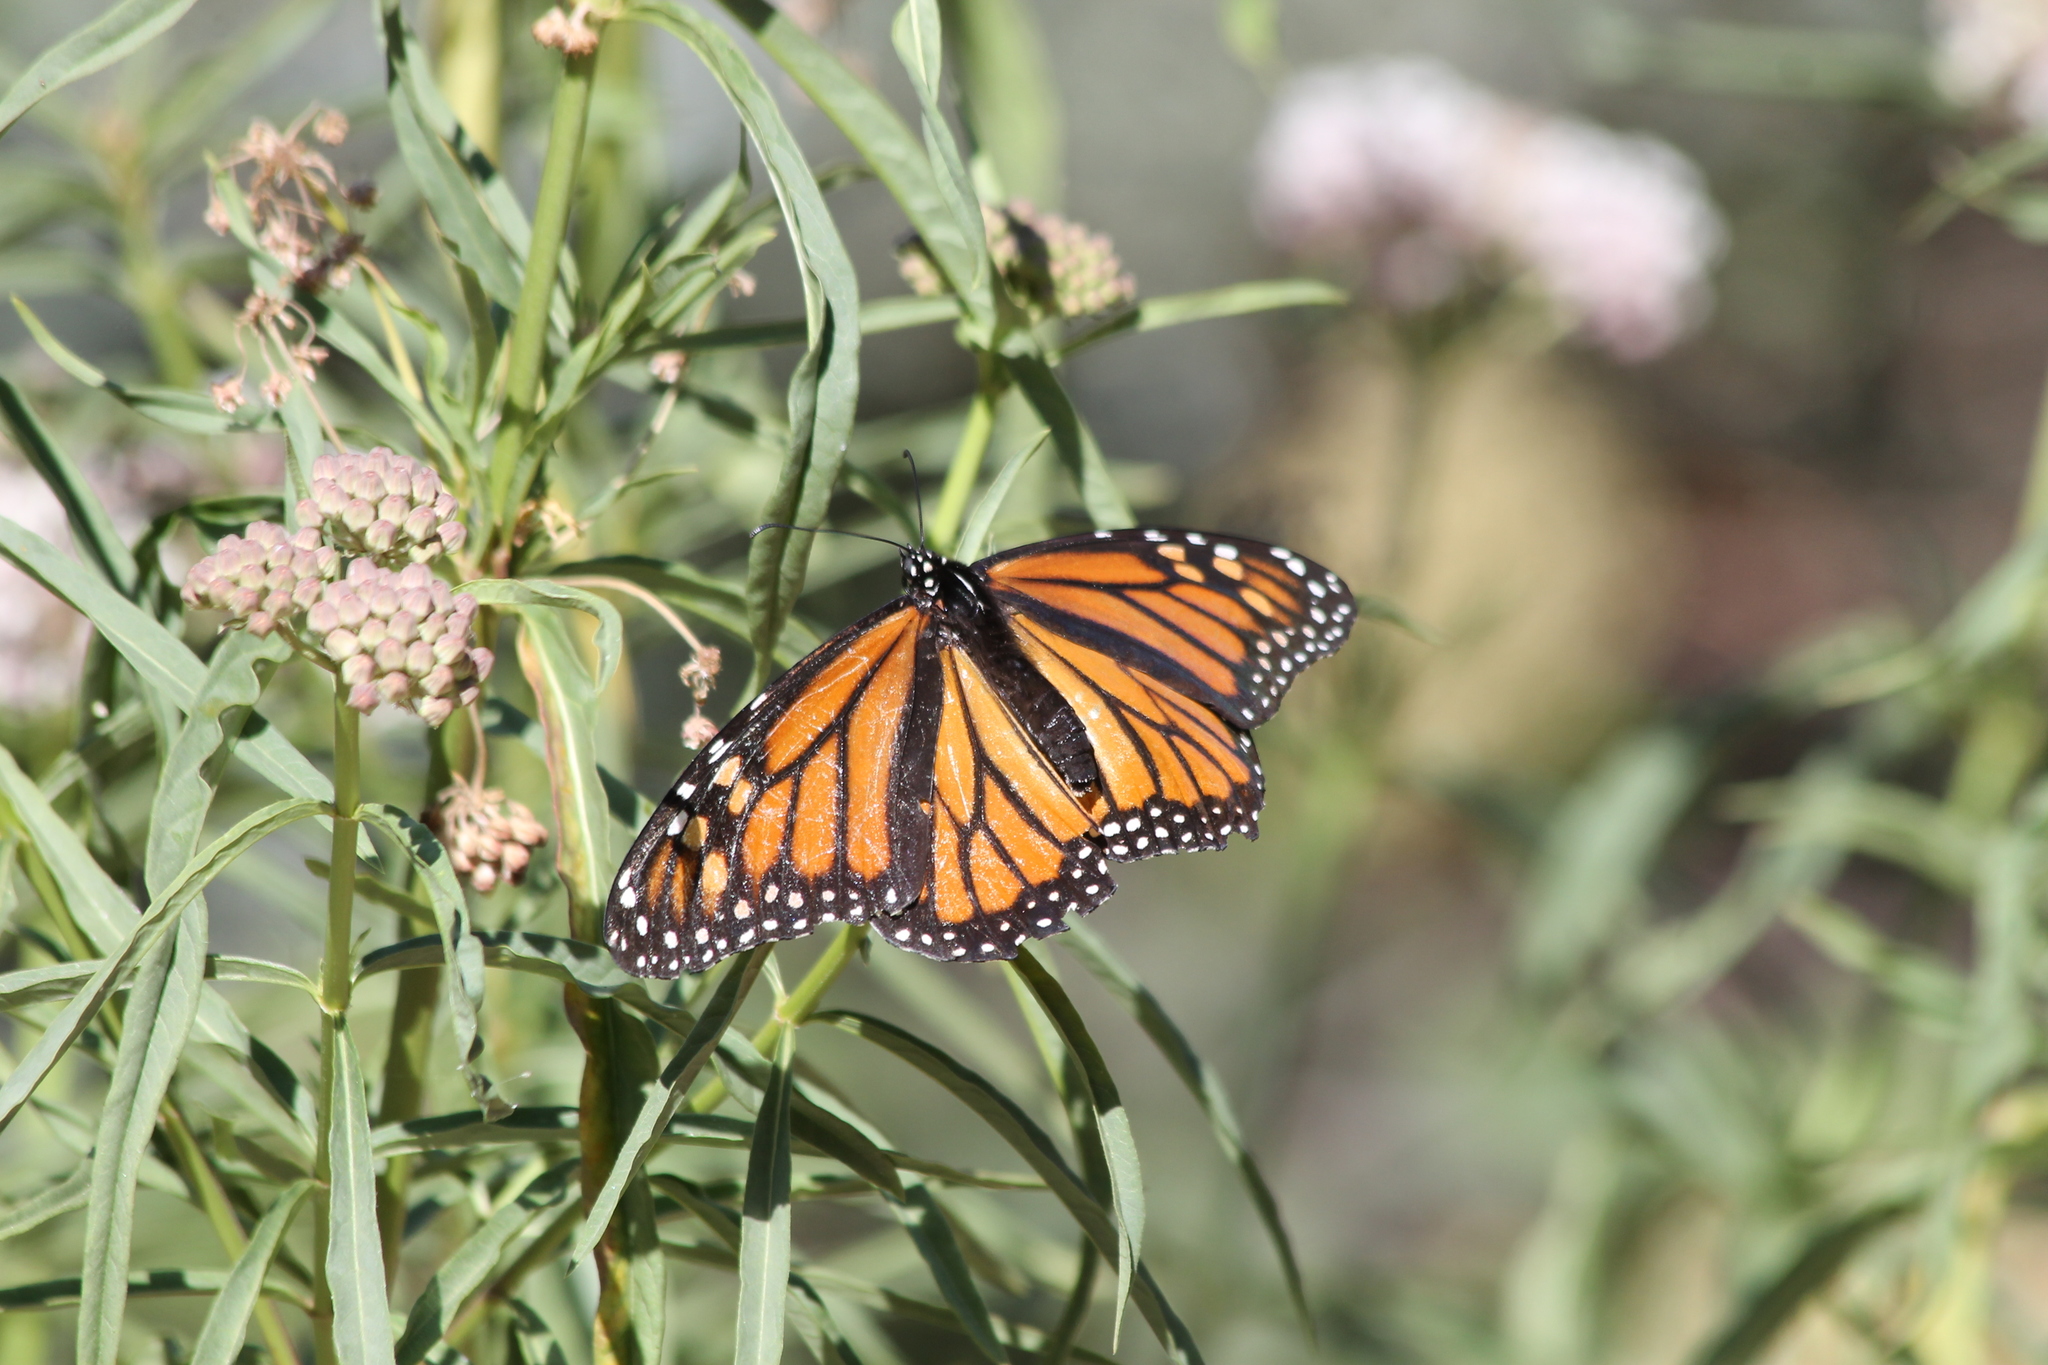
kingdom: Animalia
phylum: Arthropoda
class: Insecta
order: Lepidoptera
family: Nymphalidae
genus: Danaus
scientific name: Danaus plexippus
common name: Monarch
